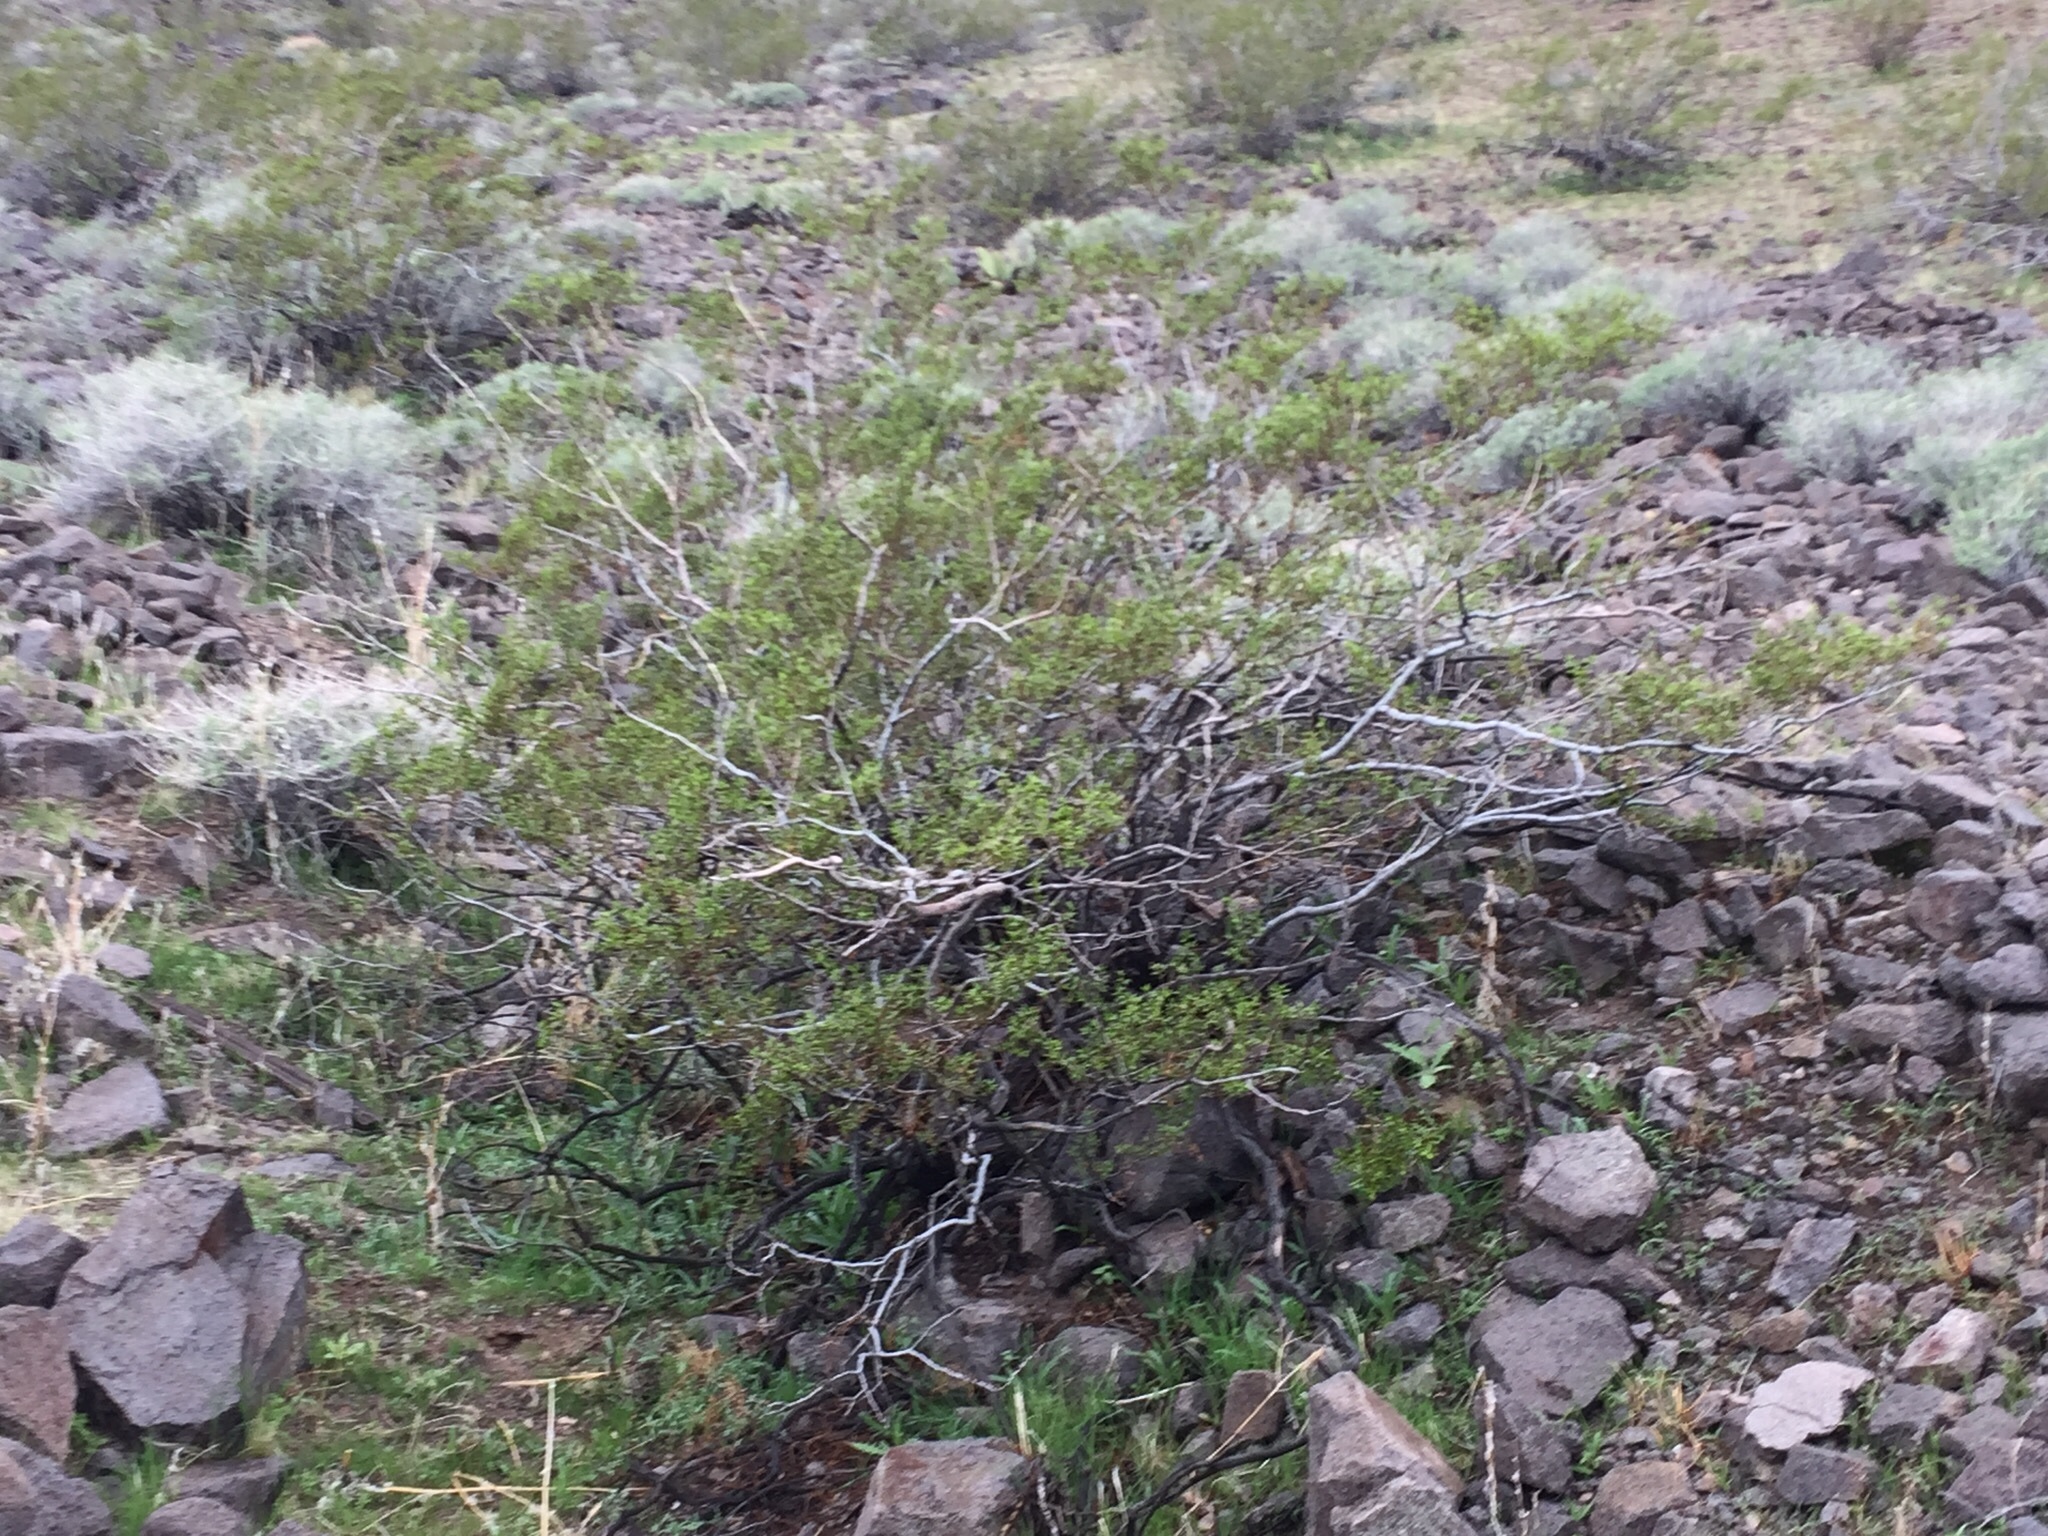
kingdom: Plantae
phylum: Tracheophyta
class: Magnoliopsida
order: Zygophyllales
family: Zygophyllaceae
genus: Larrea
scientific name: Larrea tridentata
